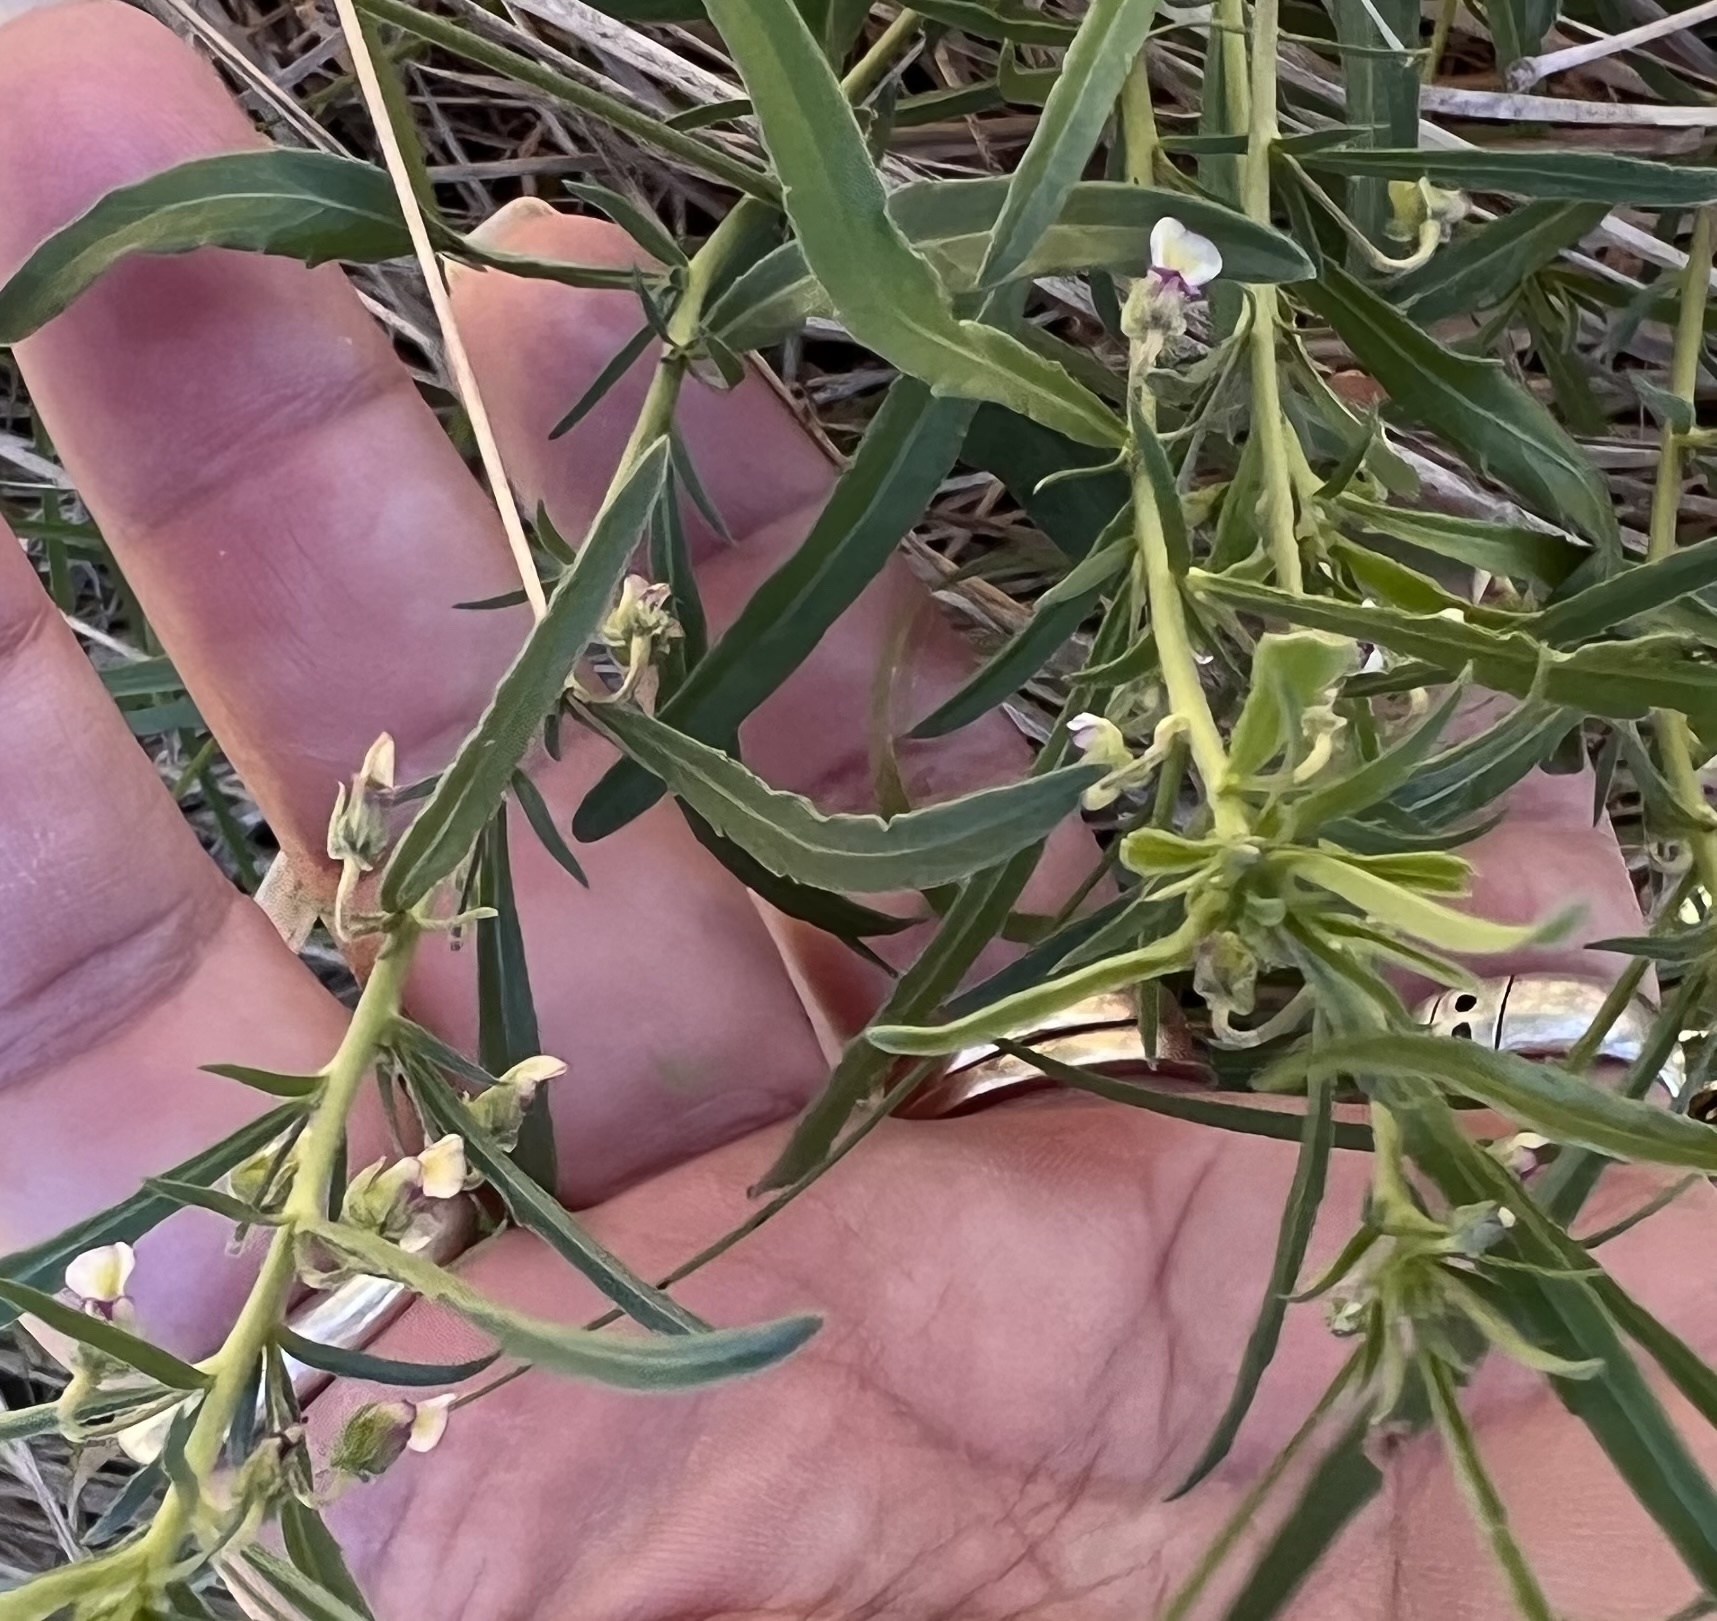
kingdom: Plantae
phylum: Tracheophyta
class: Magnoliopsida
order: Malpighiales
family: Violaceae
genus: Pombalia
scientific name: Pombalia verticillata
